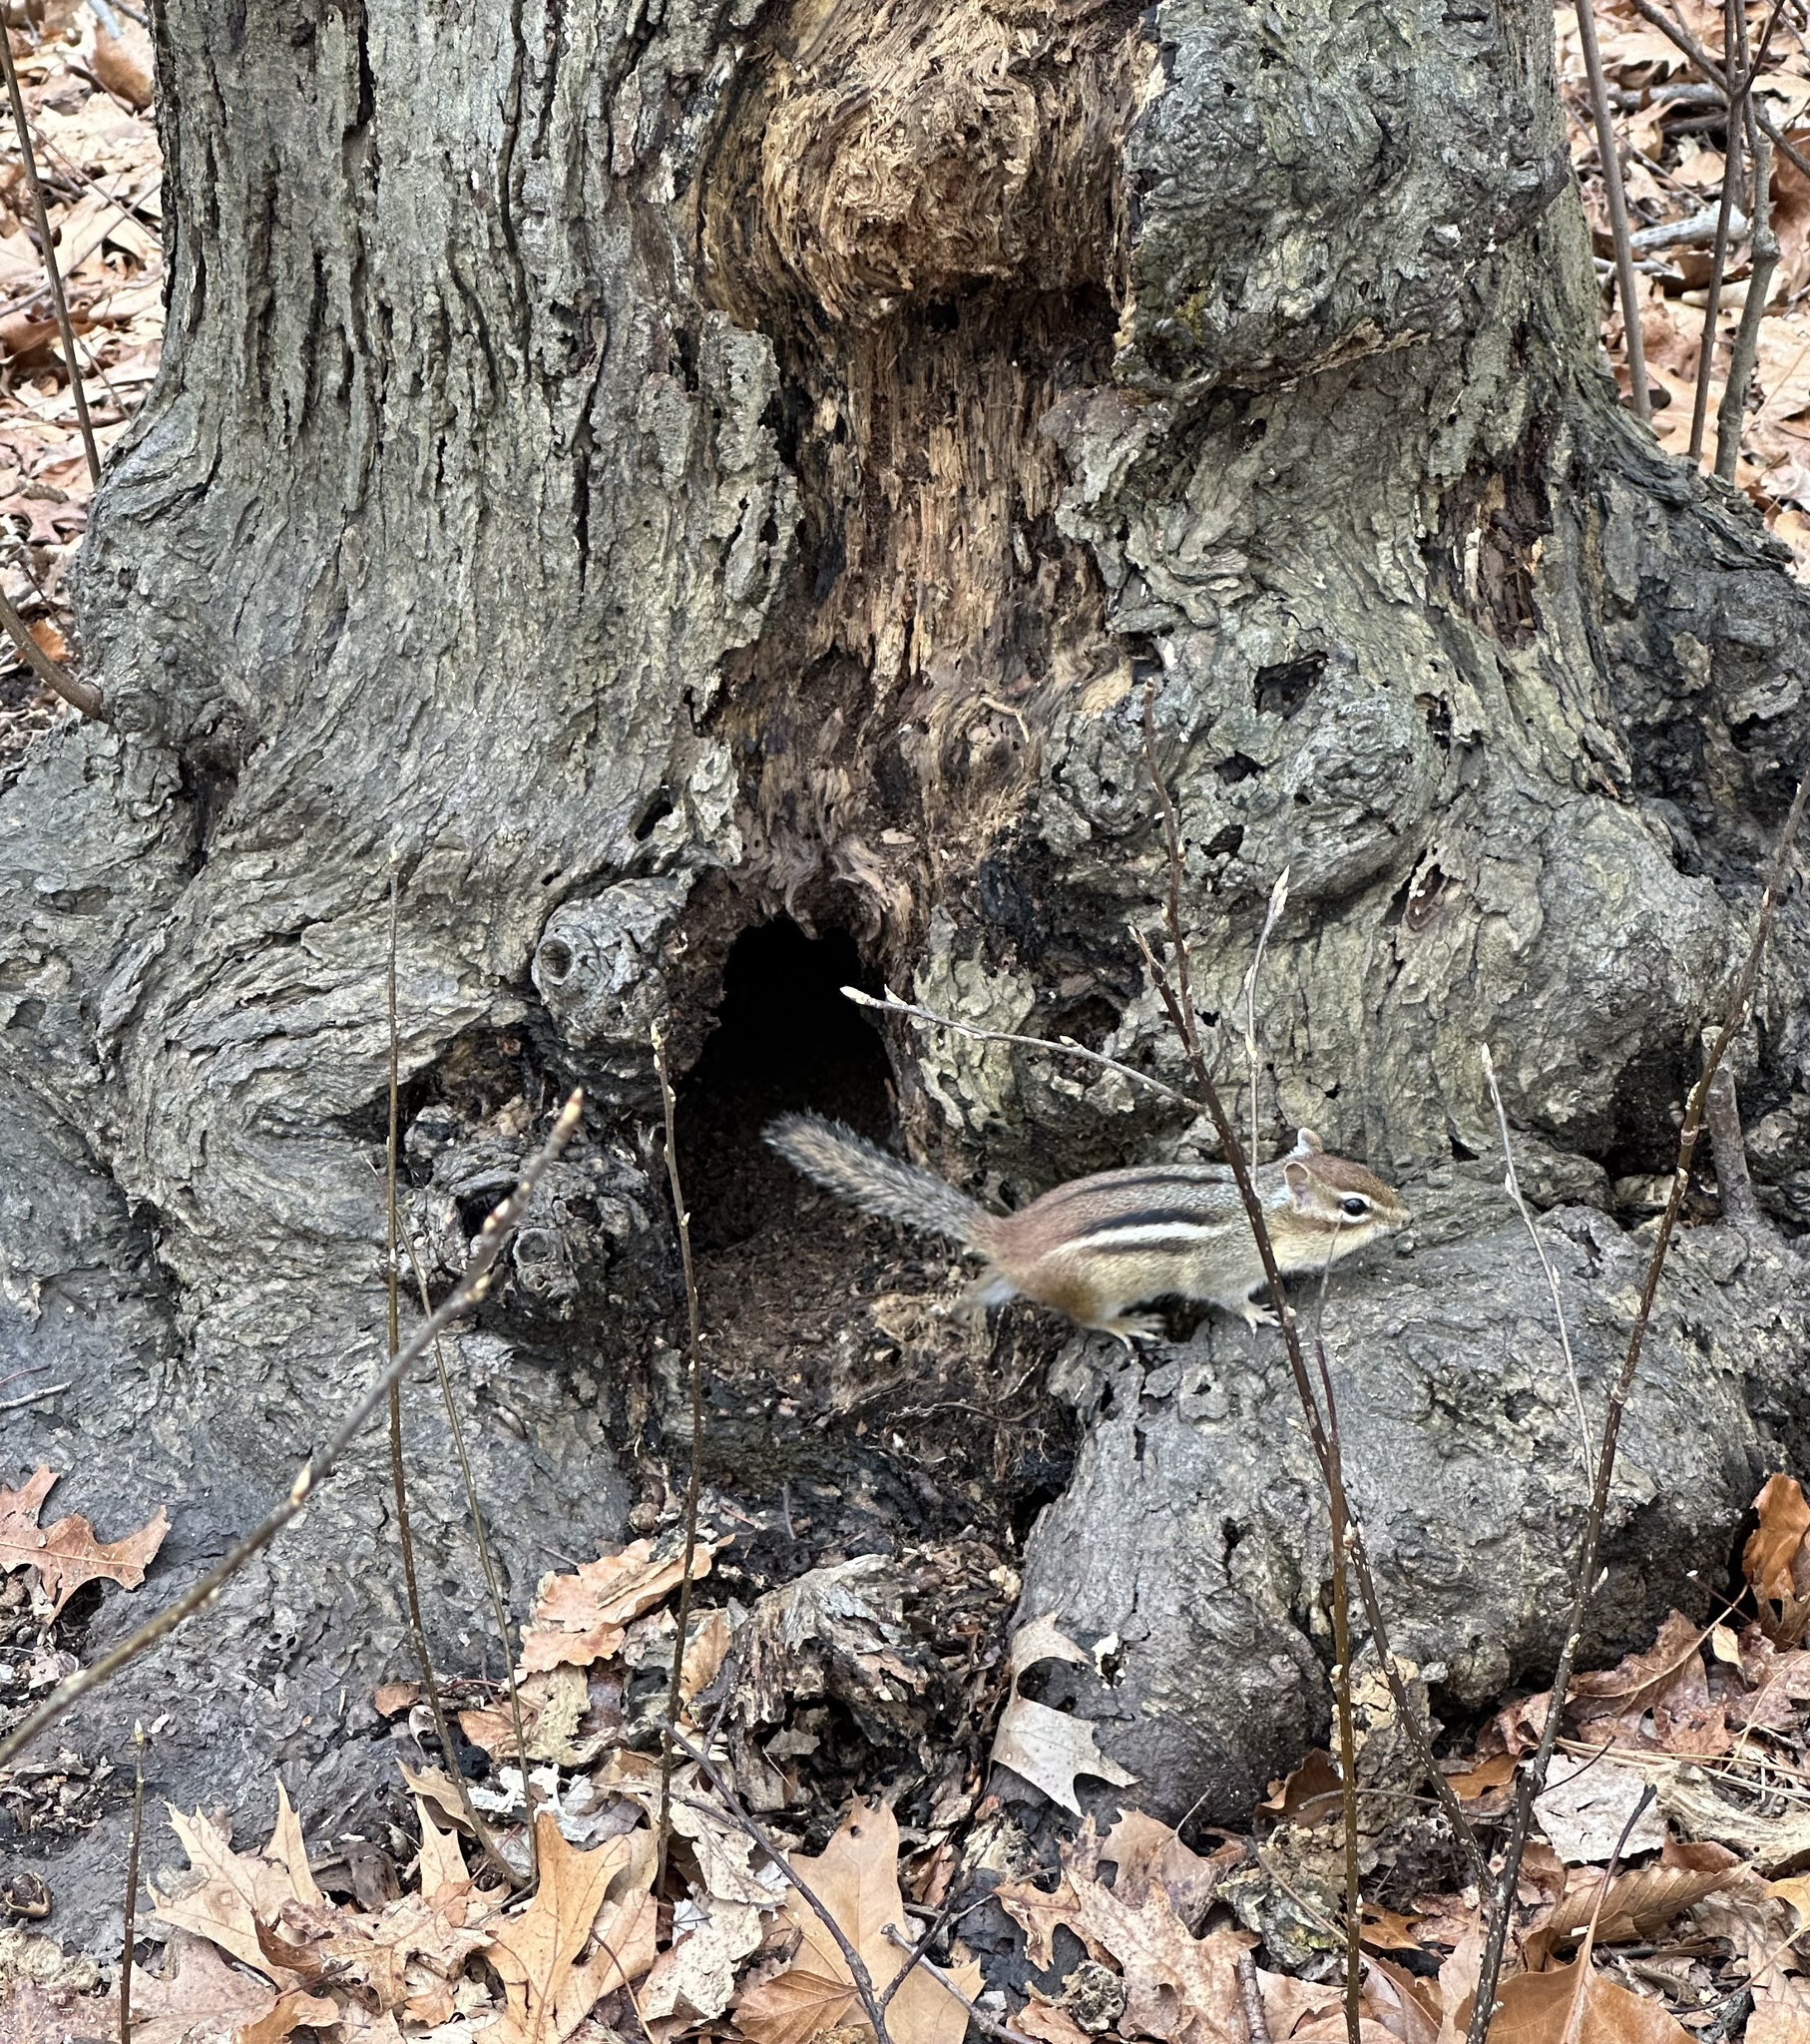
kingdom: Animalia
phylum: Chordata
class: Mammalia
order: Rodentia
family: Sciuridae
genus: Tamias
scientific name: Tamias striatus
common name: Eastern chipmunk
